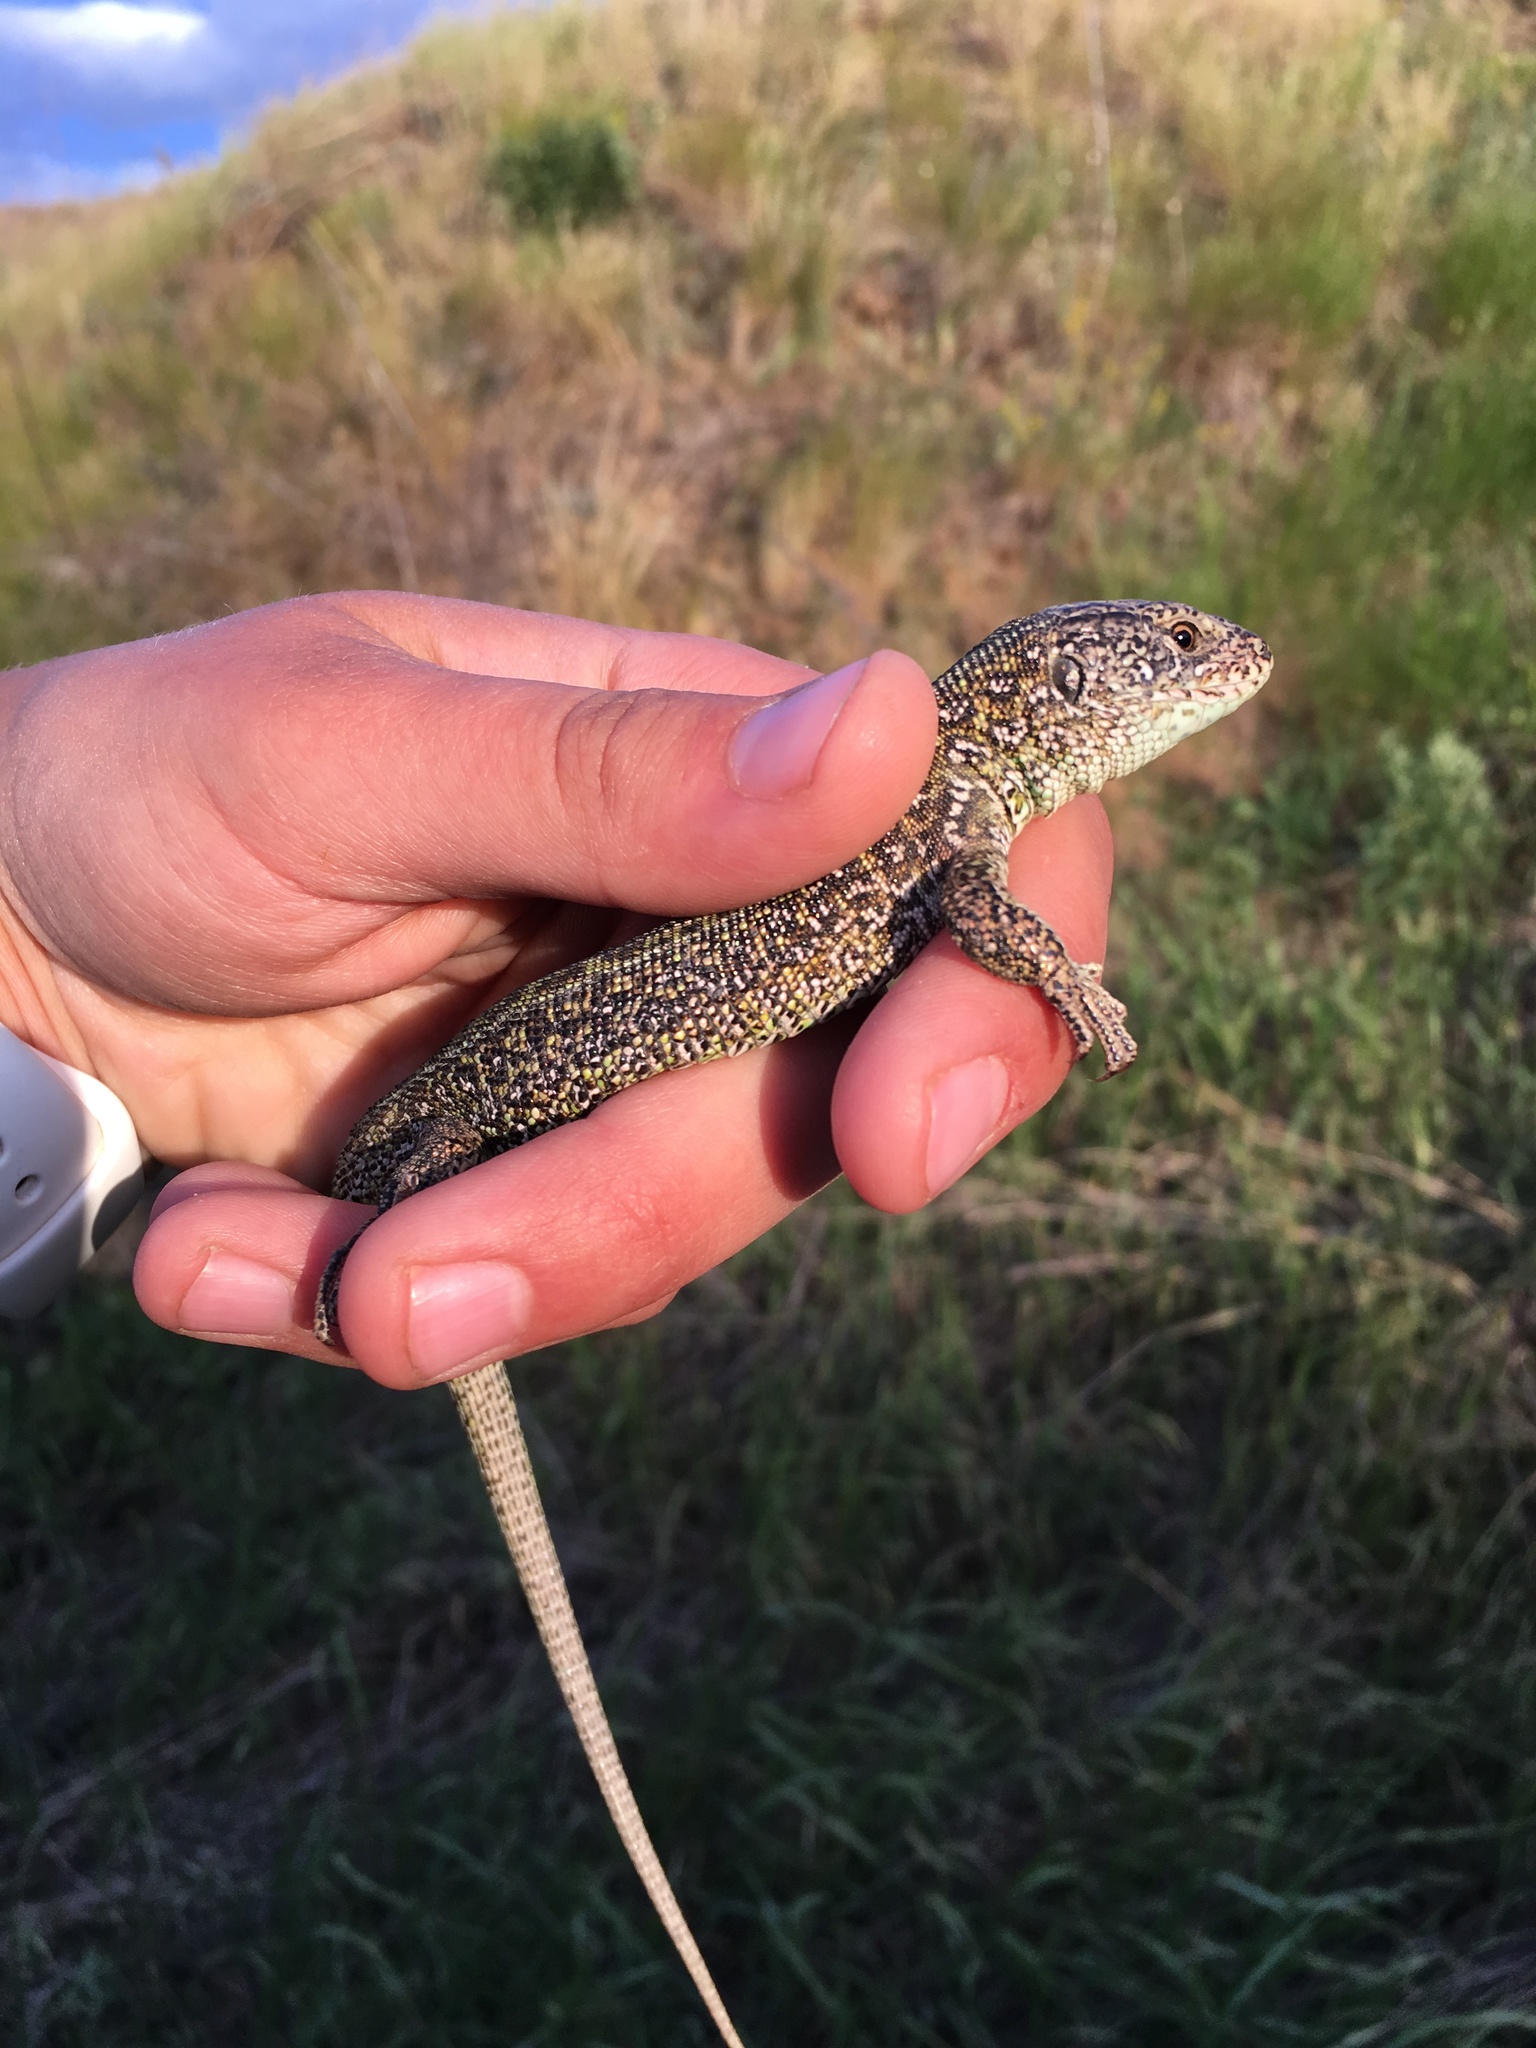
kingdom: Animalia
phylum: Chordata
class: Squamata
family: Lacertidae
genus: Lacerta
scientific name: Lacerta agilis
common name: Sand lizard
